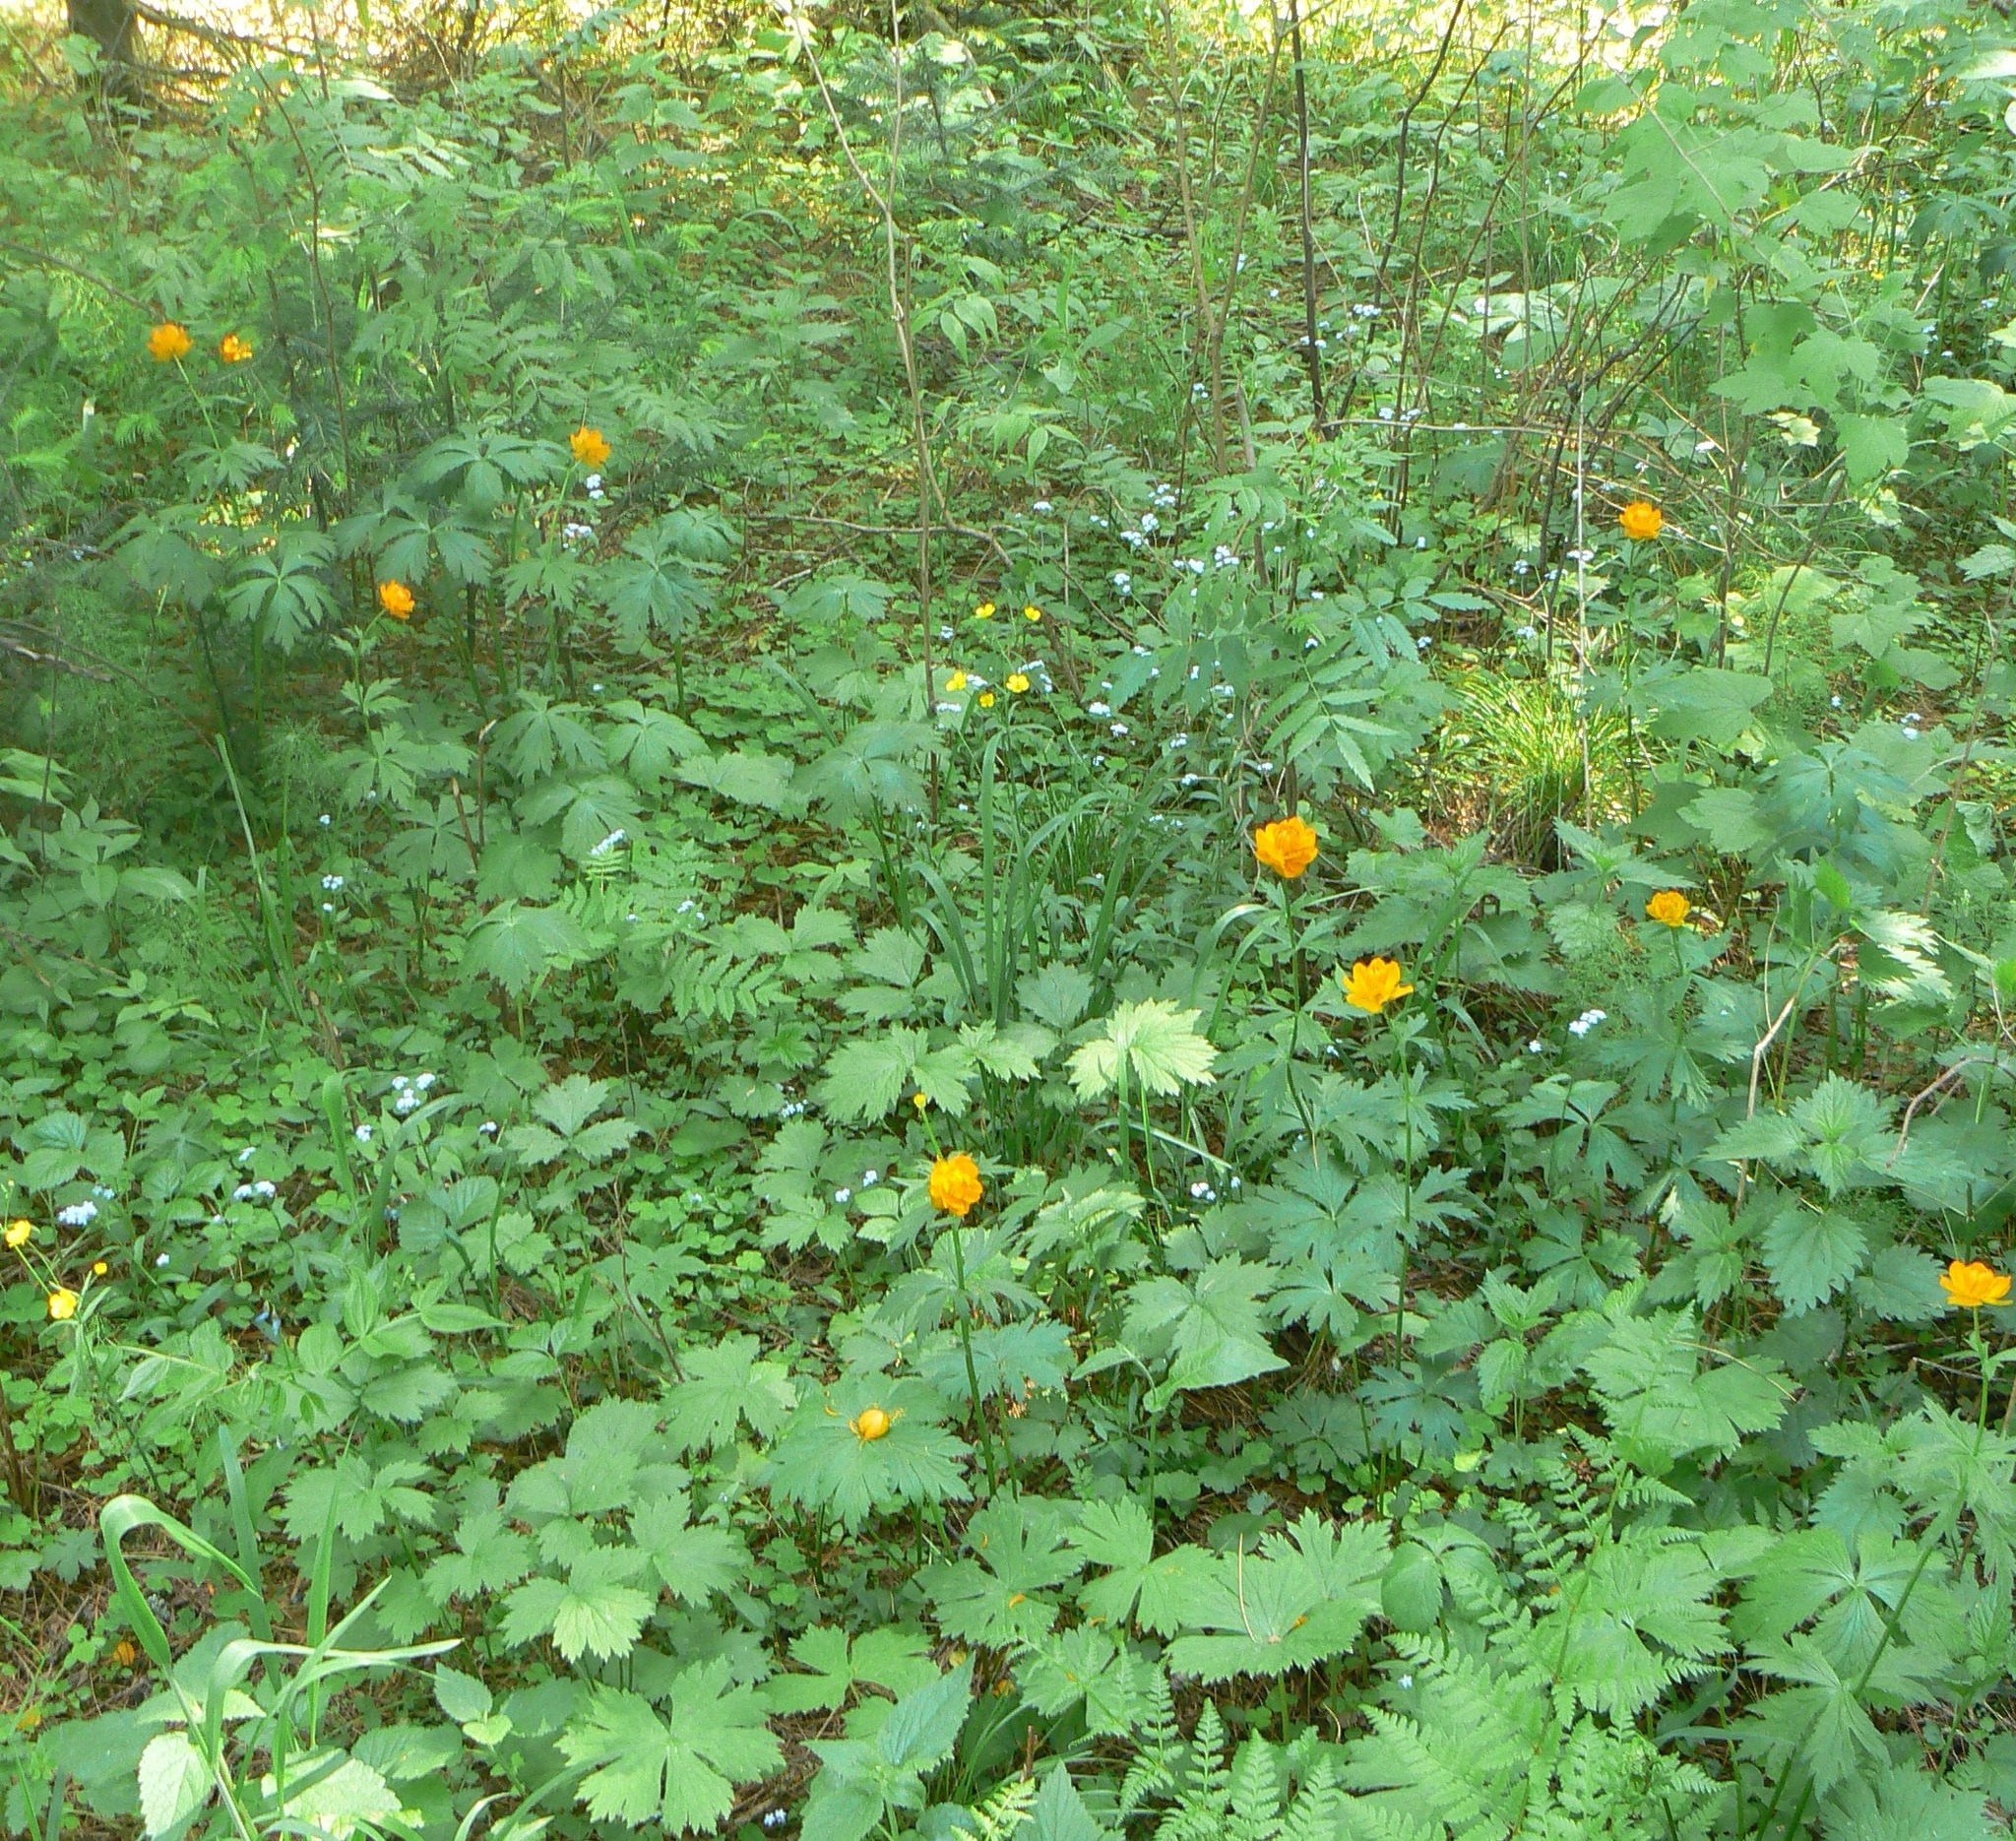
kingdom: Plantae
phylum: Tracheophyta
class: Magnoliopsida
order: Ranunculales
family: Ranunculaceae
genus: Trollius
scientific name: Trollius asiaticus
